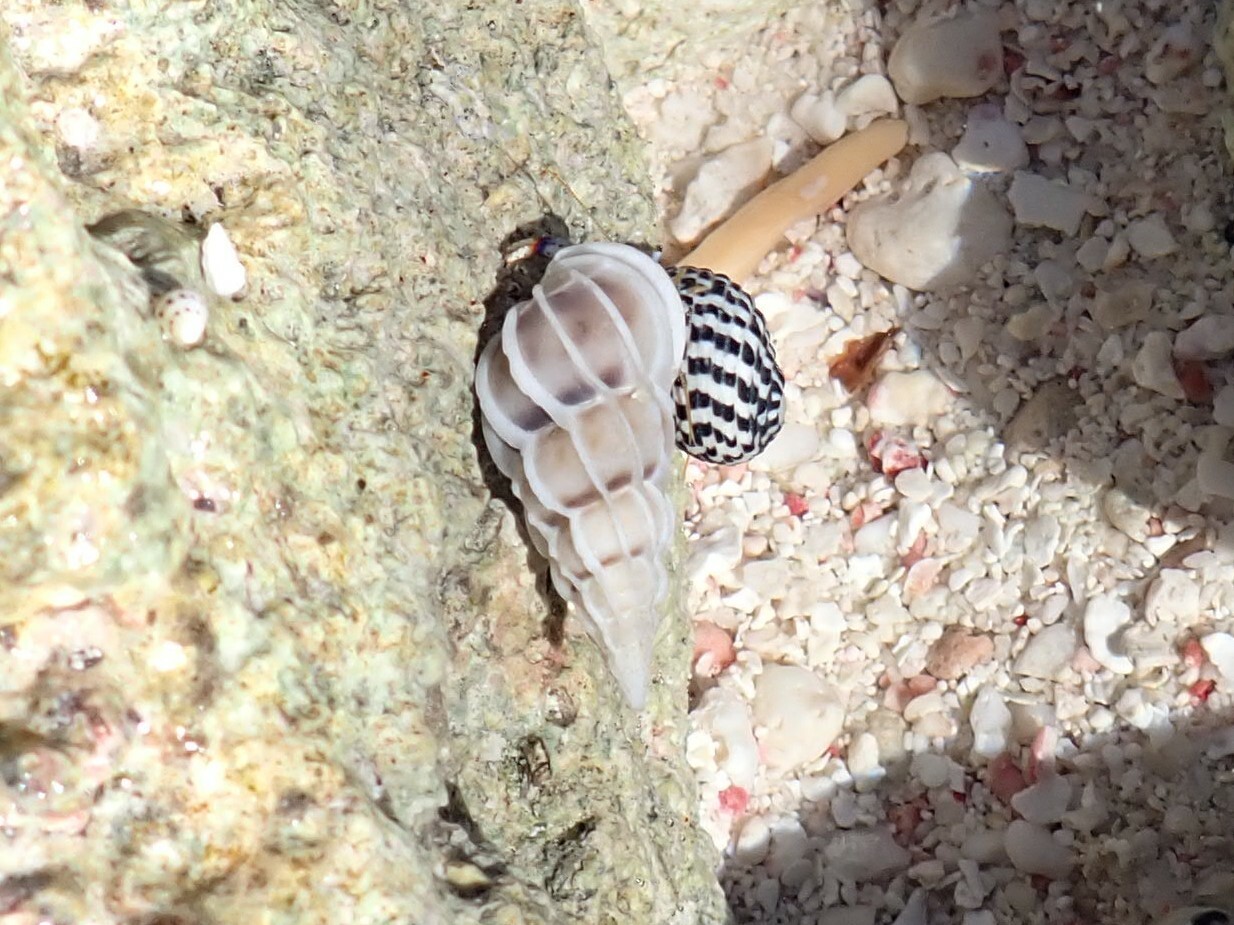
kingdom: Animalia
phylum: Mollusca
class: Gastropoda
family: Epitoniidae
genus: Gyroscala
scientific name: Gyroscala commutata
